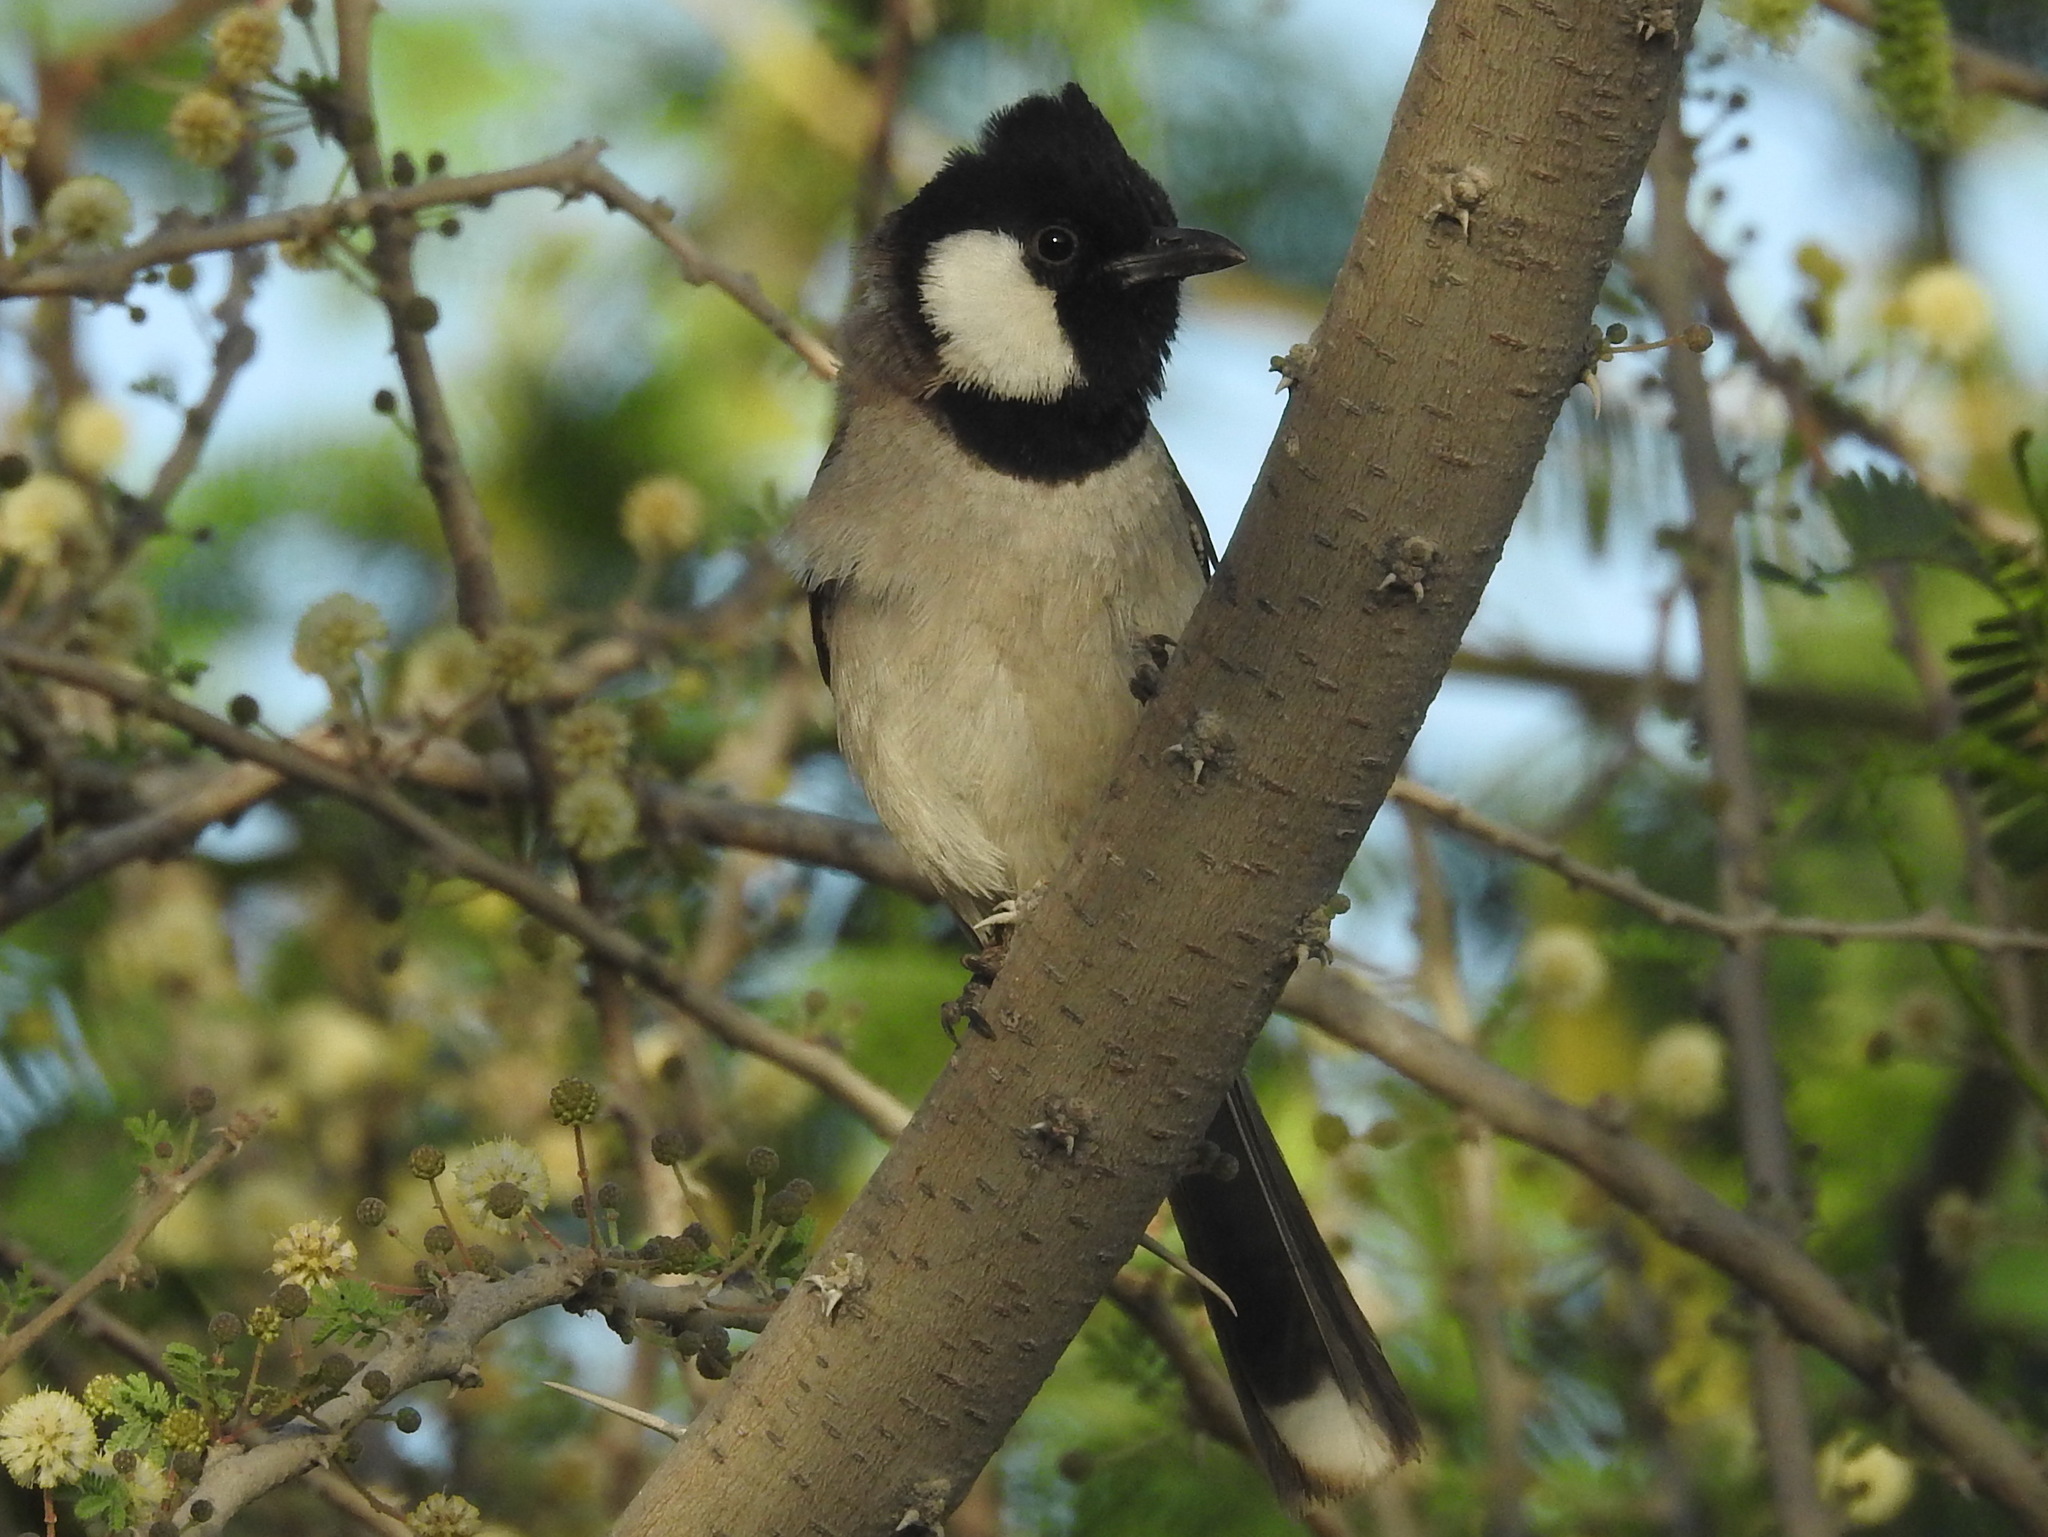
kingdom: Animalia
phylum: Chordata
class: Aves
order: Passeriformes
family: Pycnonotidae
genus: Pycnonotus
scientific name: Pycnonotus leucotis
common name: White-eared bulbul
